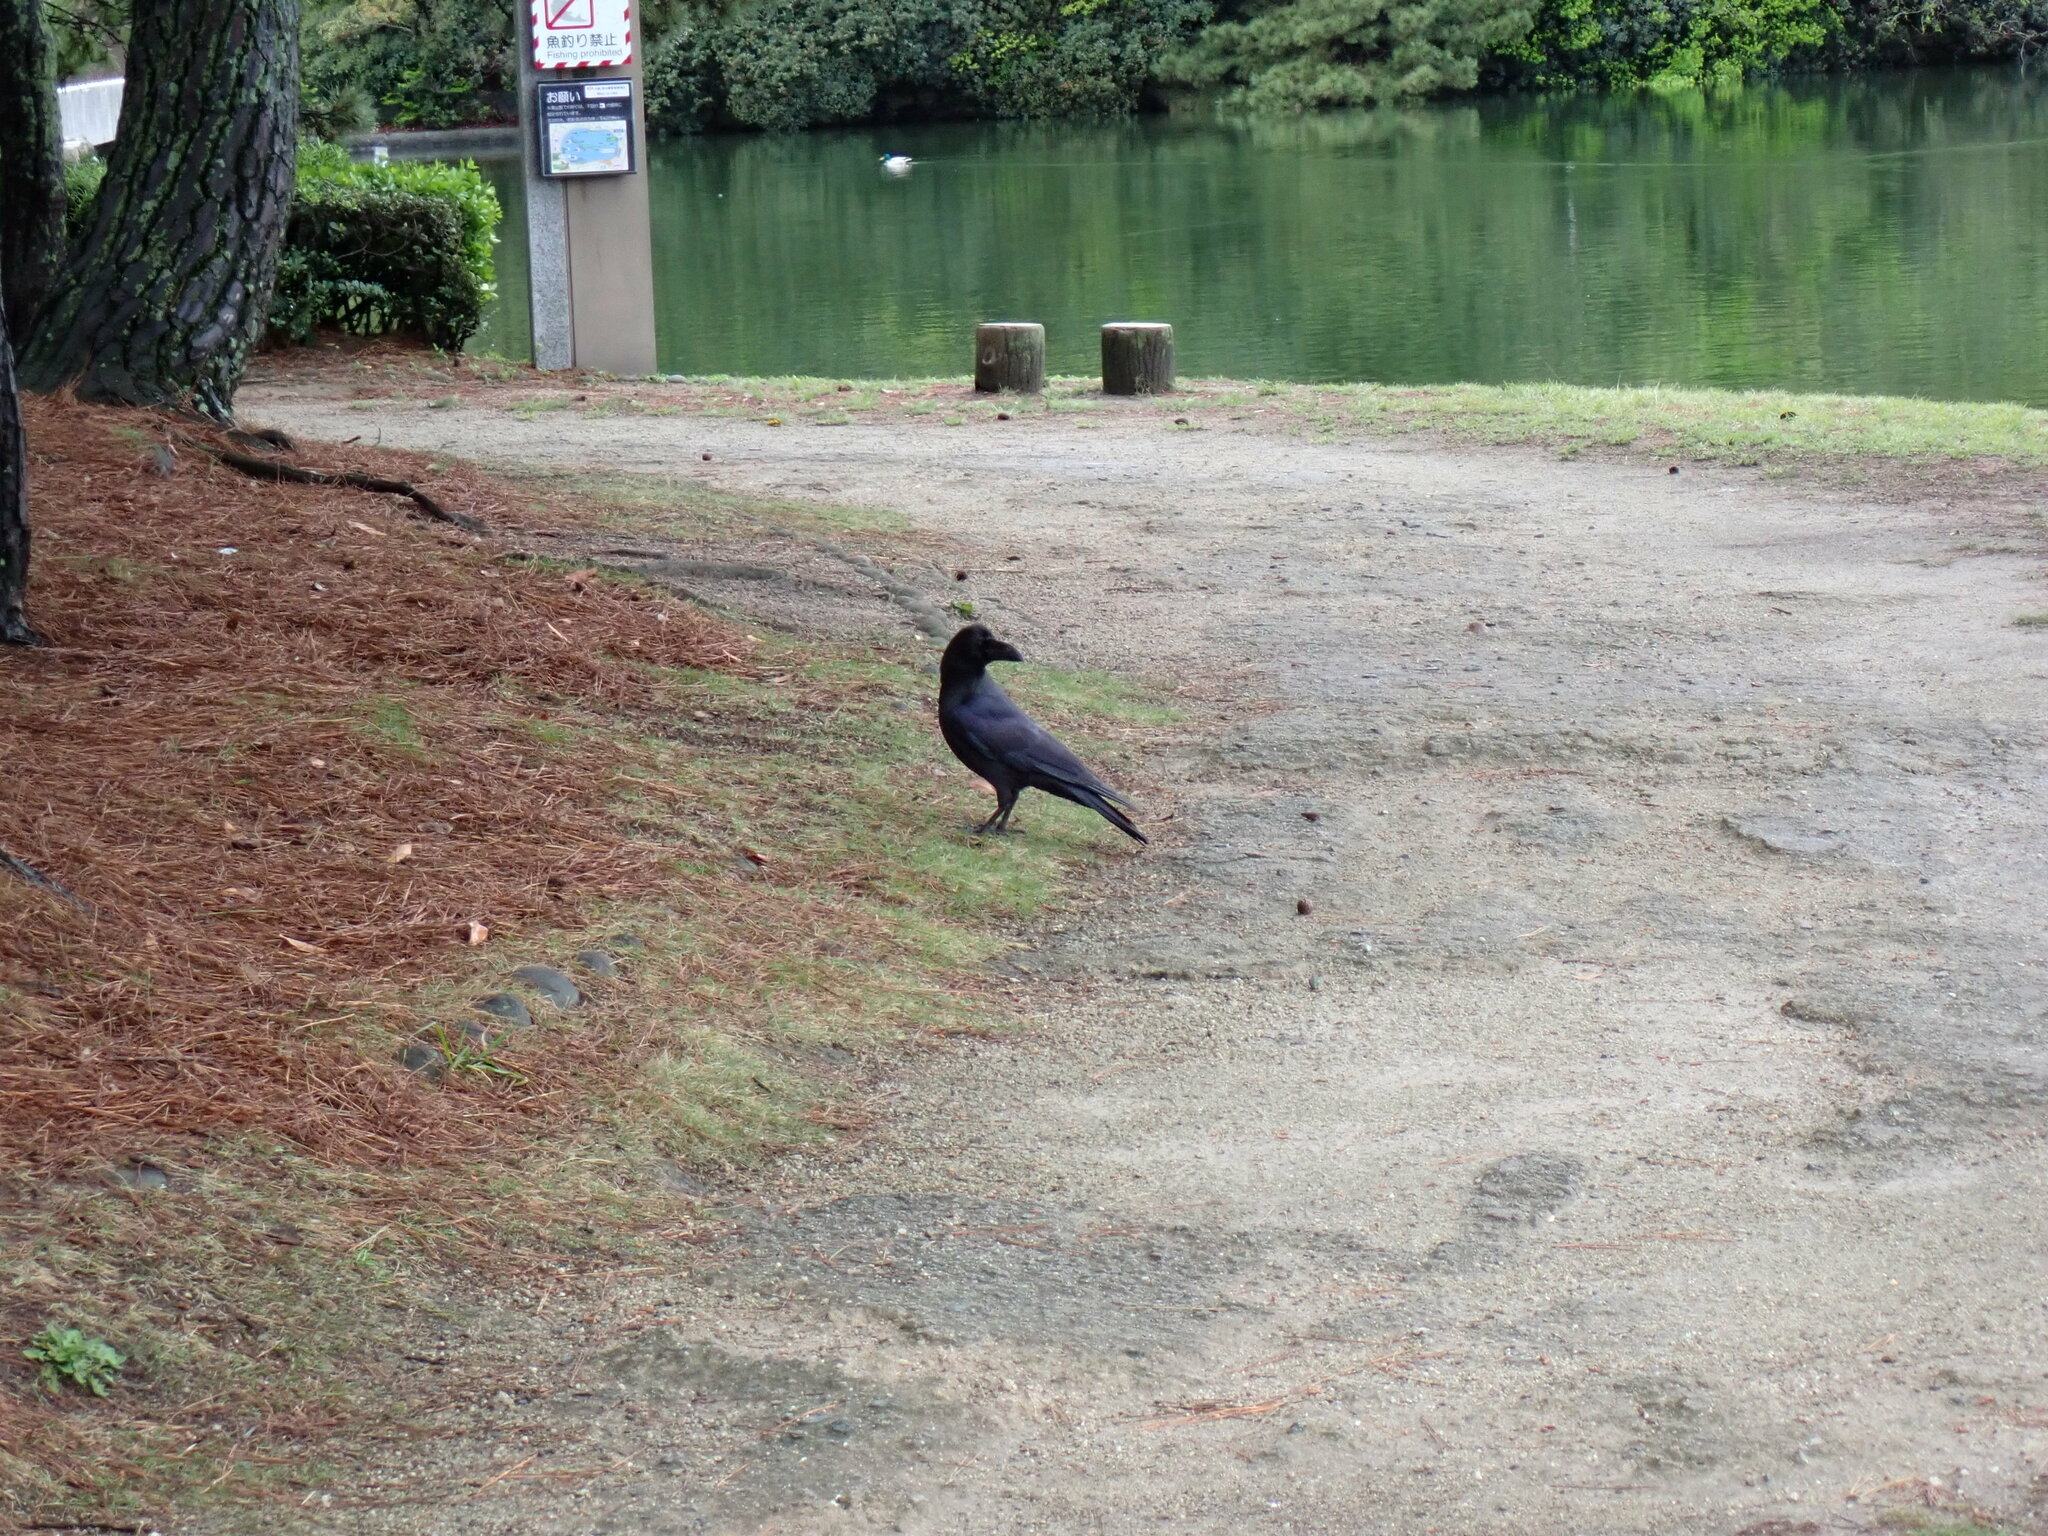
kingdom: Animalia
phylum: Chordata
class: Aves
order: Passeriformes
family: Corvidae
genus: Corvus
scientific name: Corvus macrorhynchos
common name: Large-billed crow
